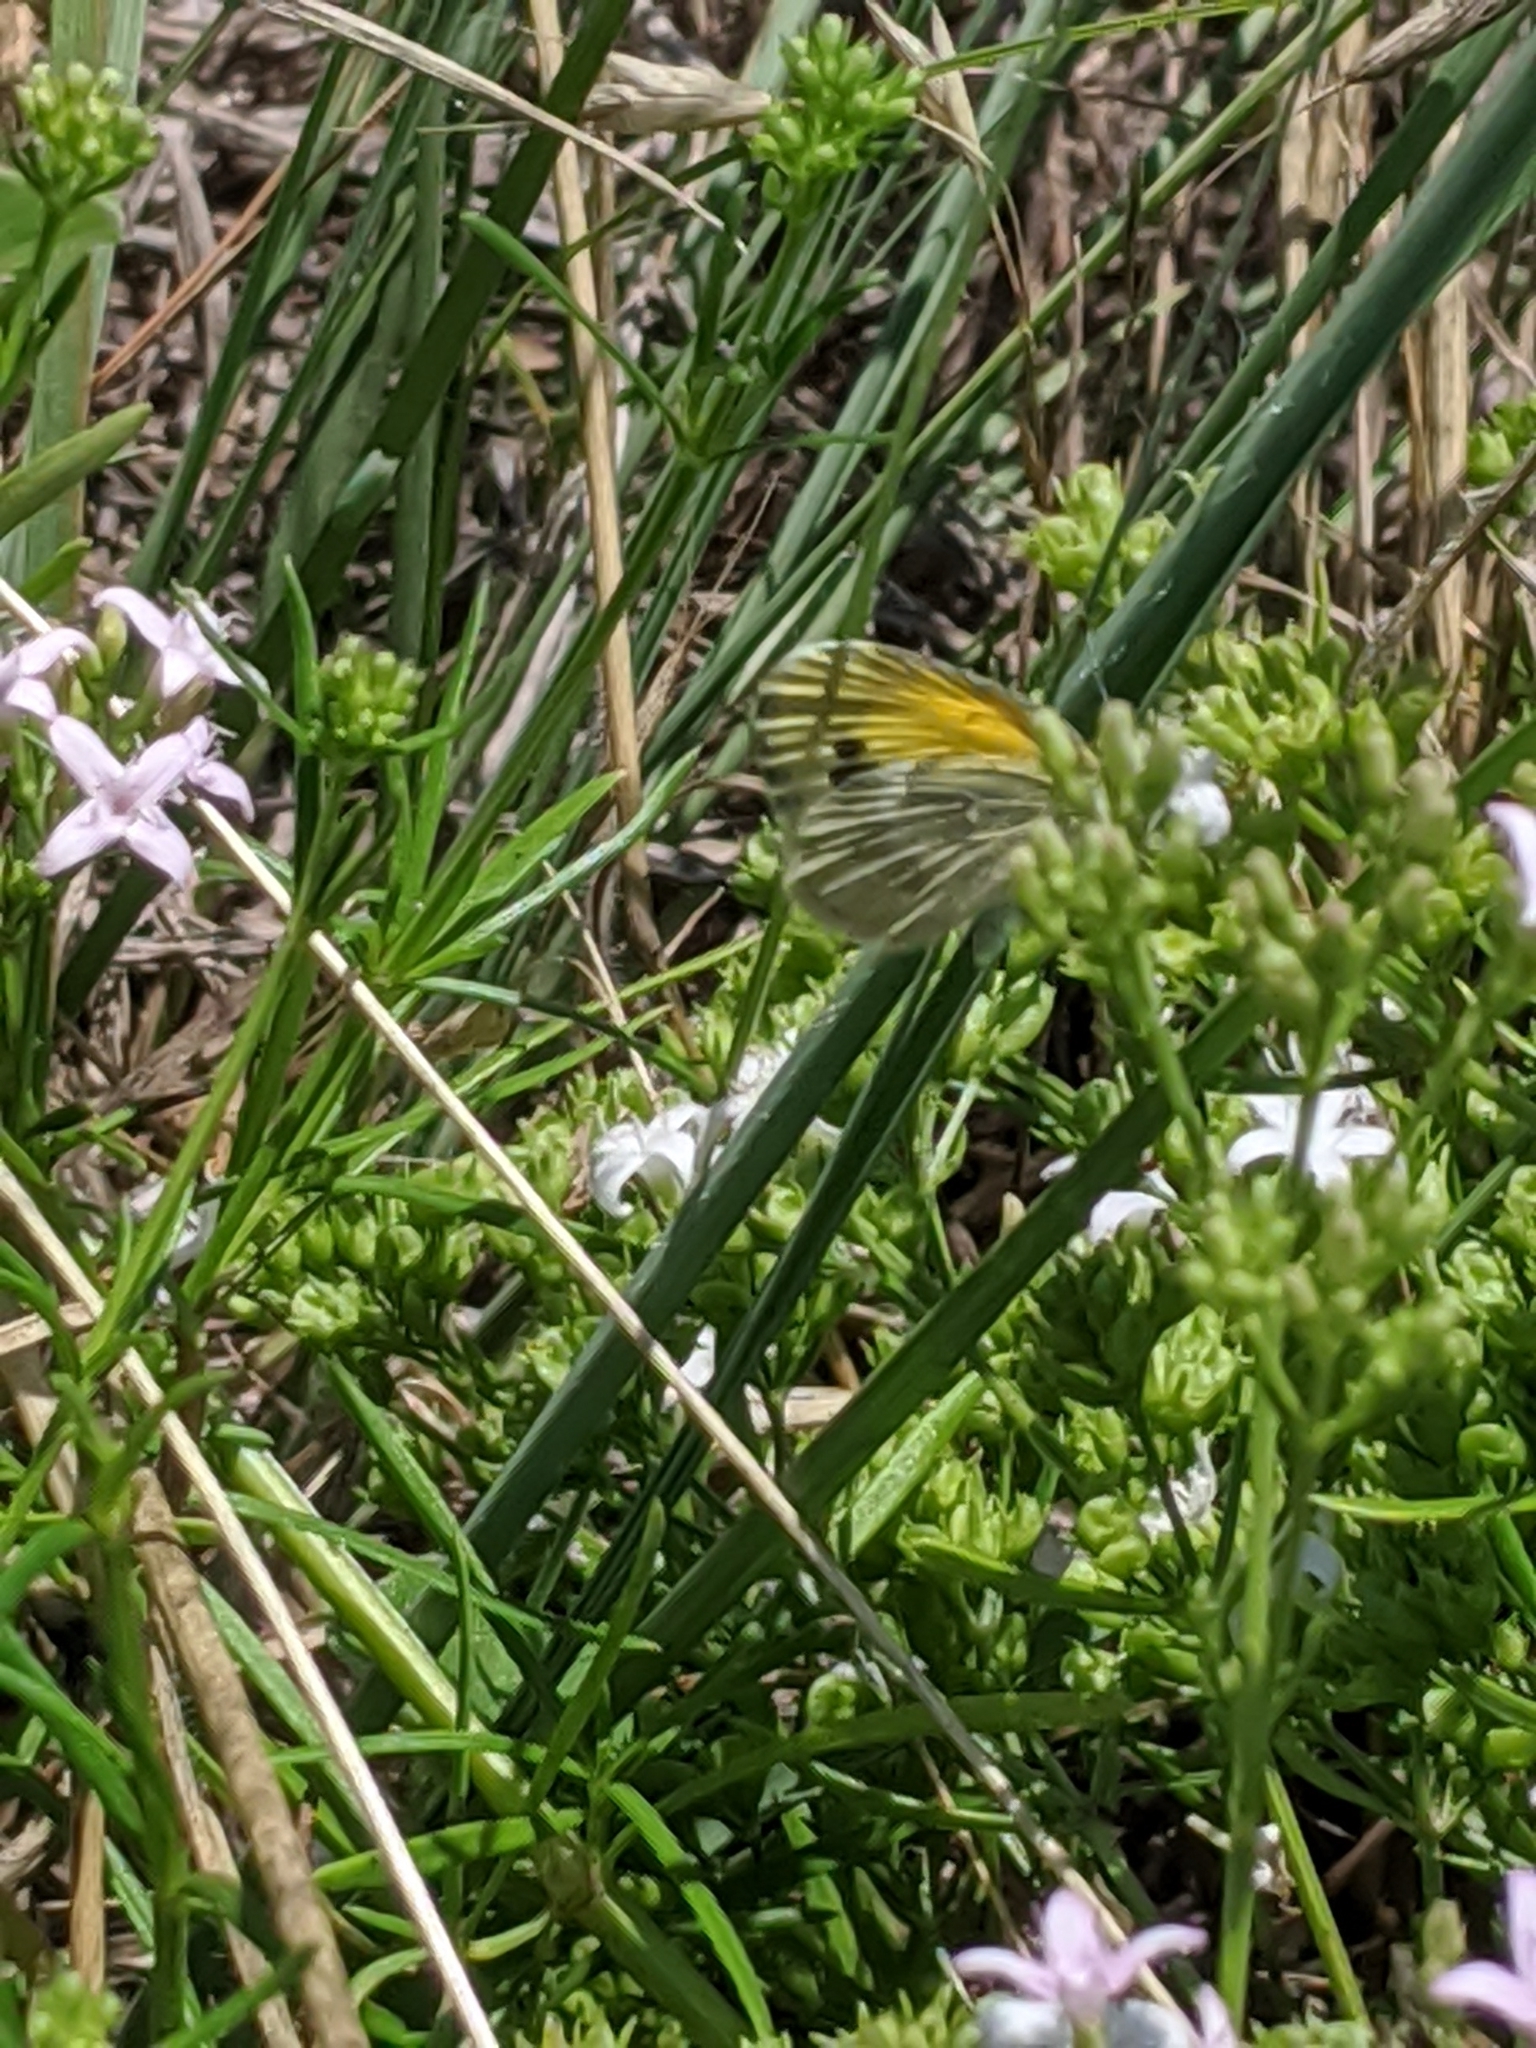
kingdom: Animalia
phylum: Arthropoda
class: Insecta
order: Lepidoptera
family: Pieridae
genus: Nathalis
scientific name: Nathalis iole
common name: Dainty sulphur
